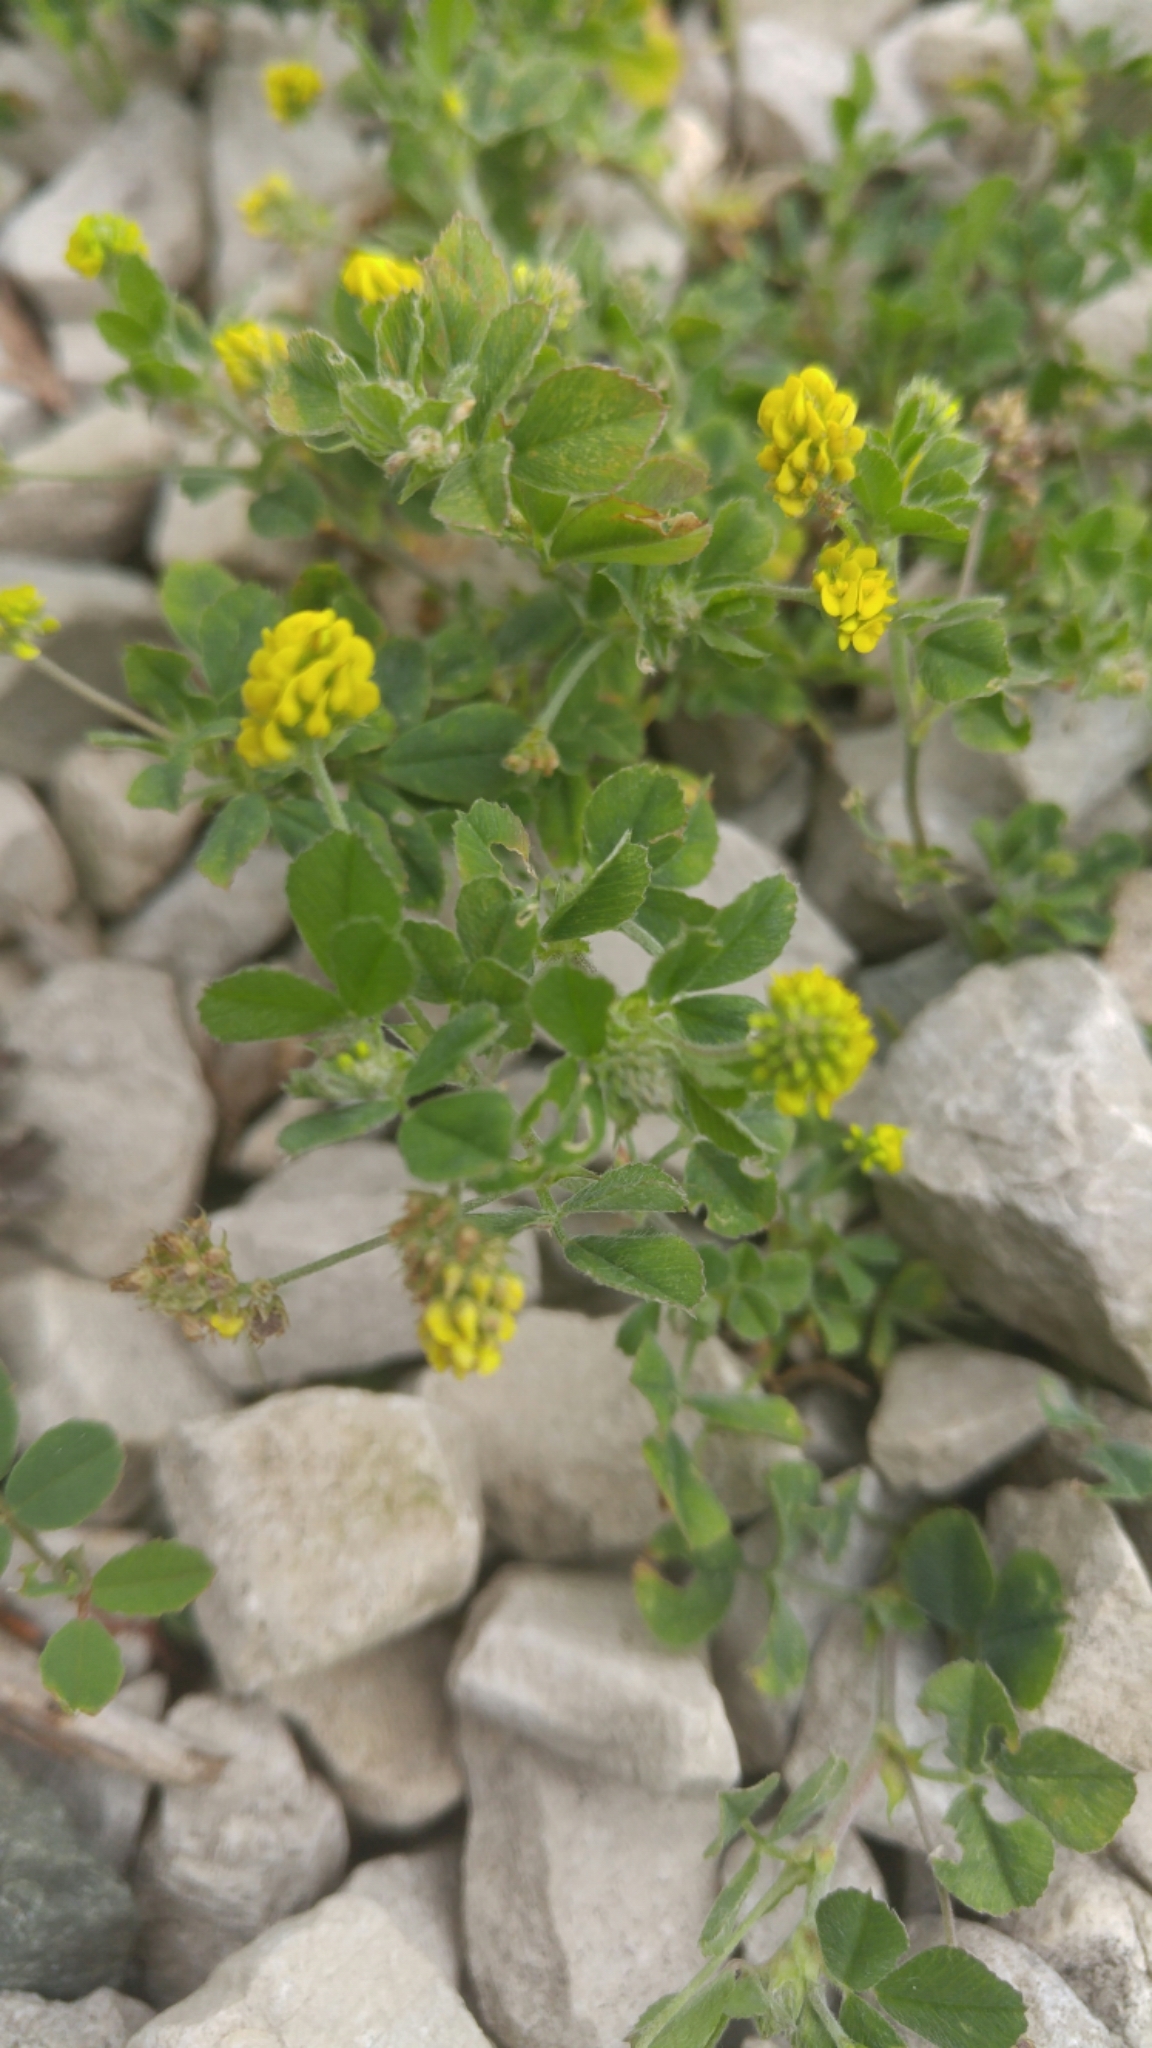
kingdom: Plantae
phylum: Tracheophyta
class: Magnoliopsida
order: Fabales
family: Fabaceae
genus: Medicago
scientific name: Medicago lupulina
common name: Black medick
